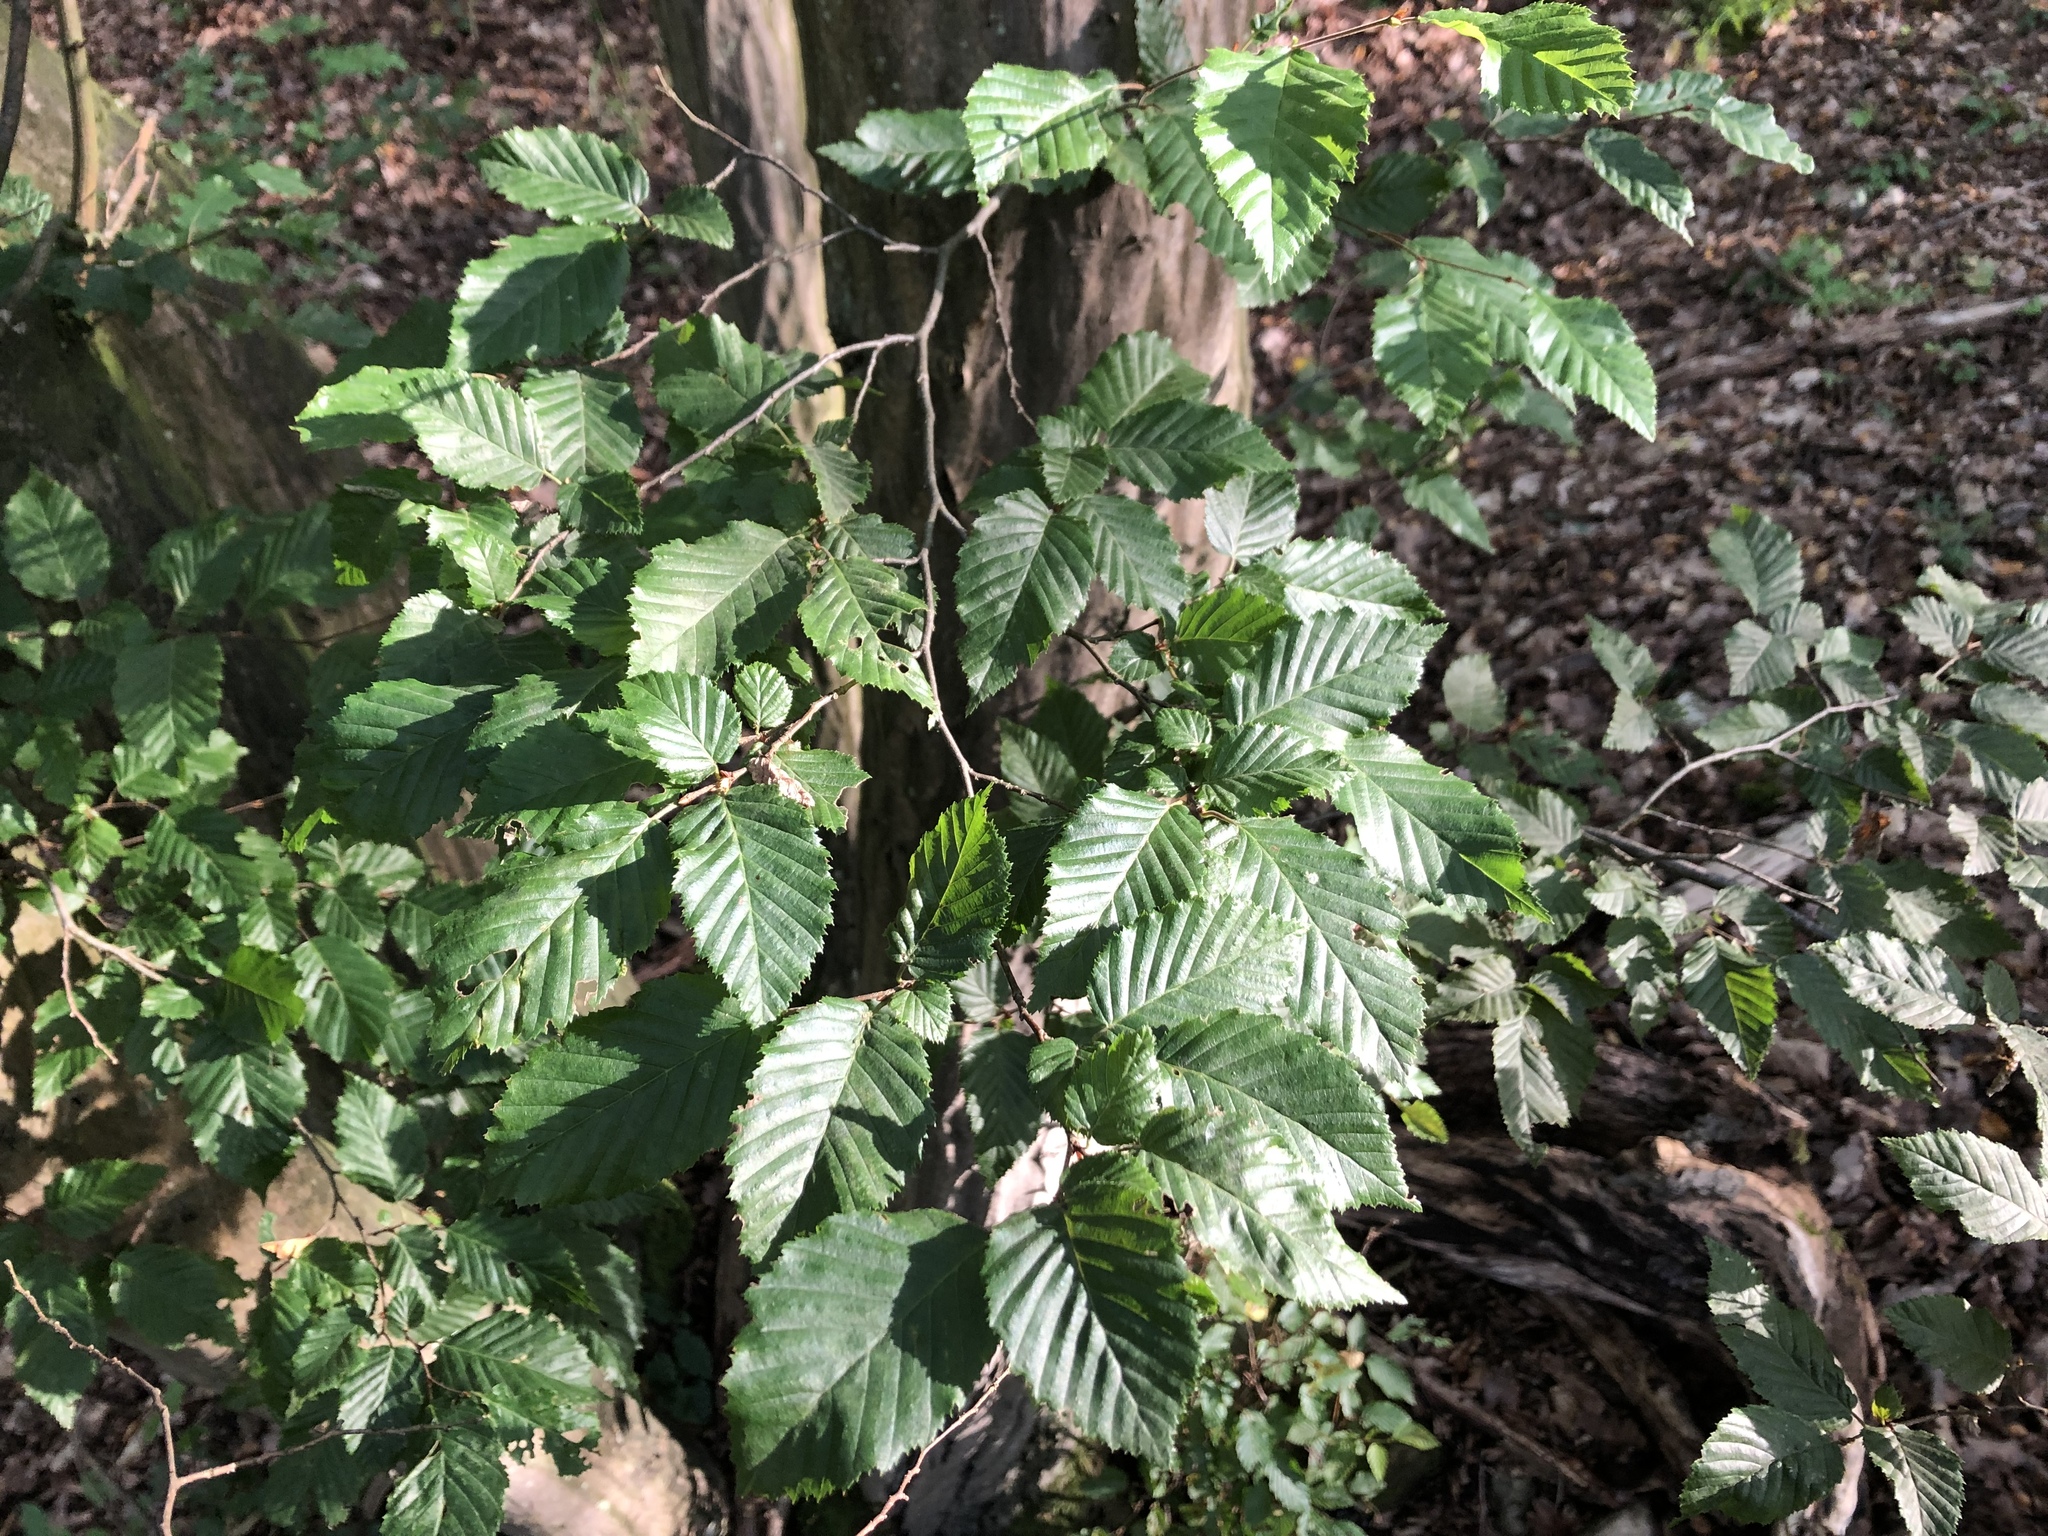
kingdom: Plantae
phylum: Tracheophyta
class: Magnoliopsida
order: Fagales
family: Betulaceae
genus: Carpinus
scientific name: Carpinus betulus
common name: Hornbeam
